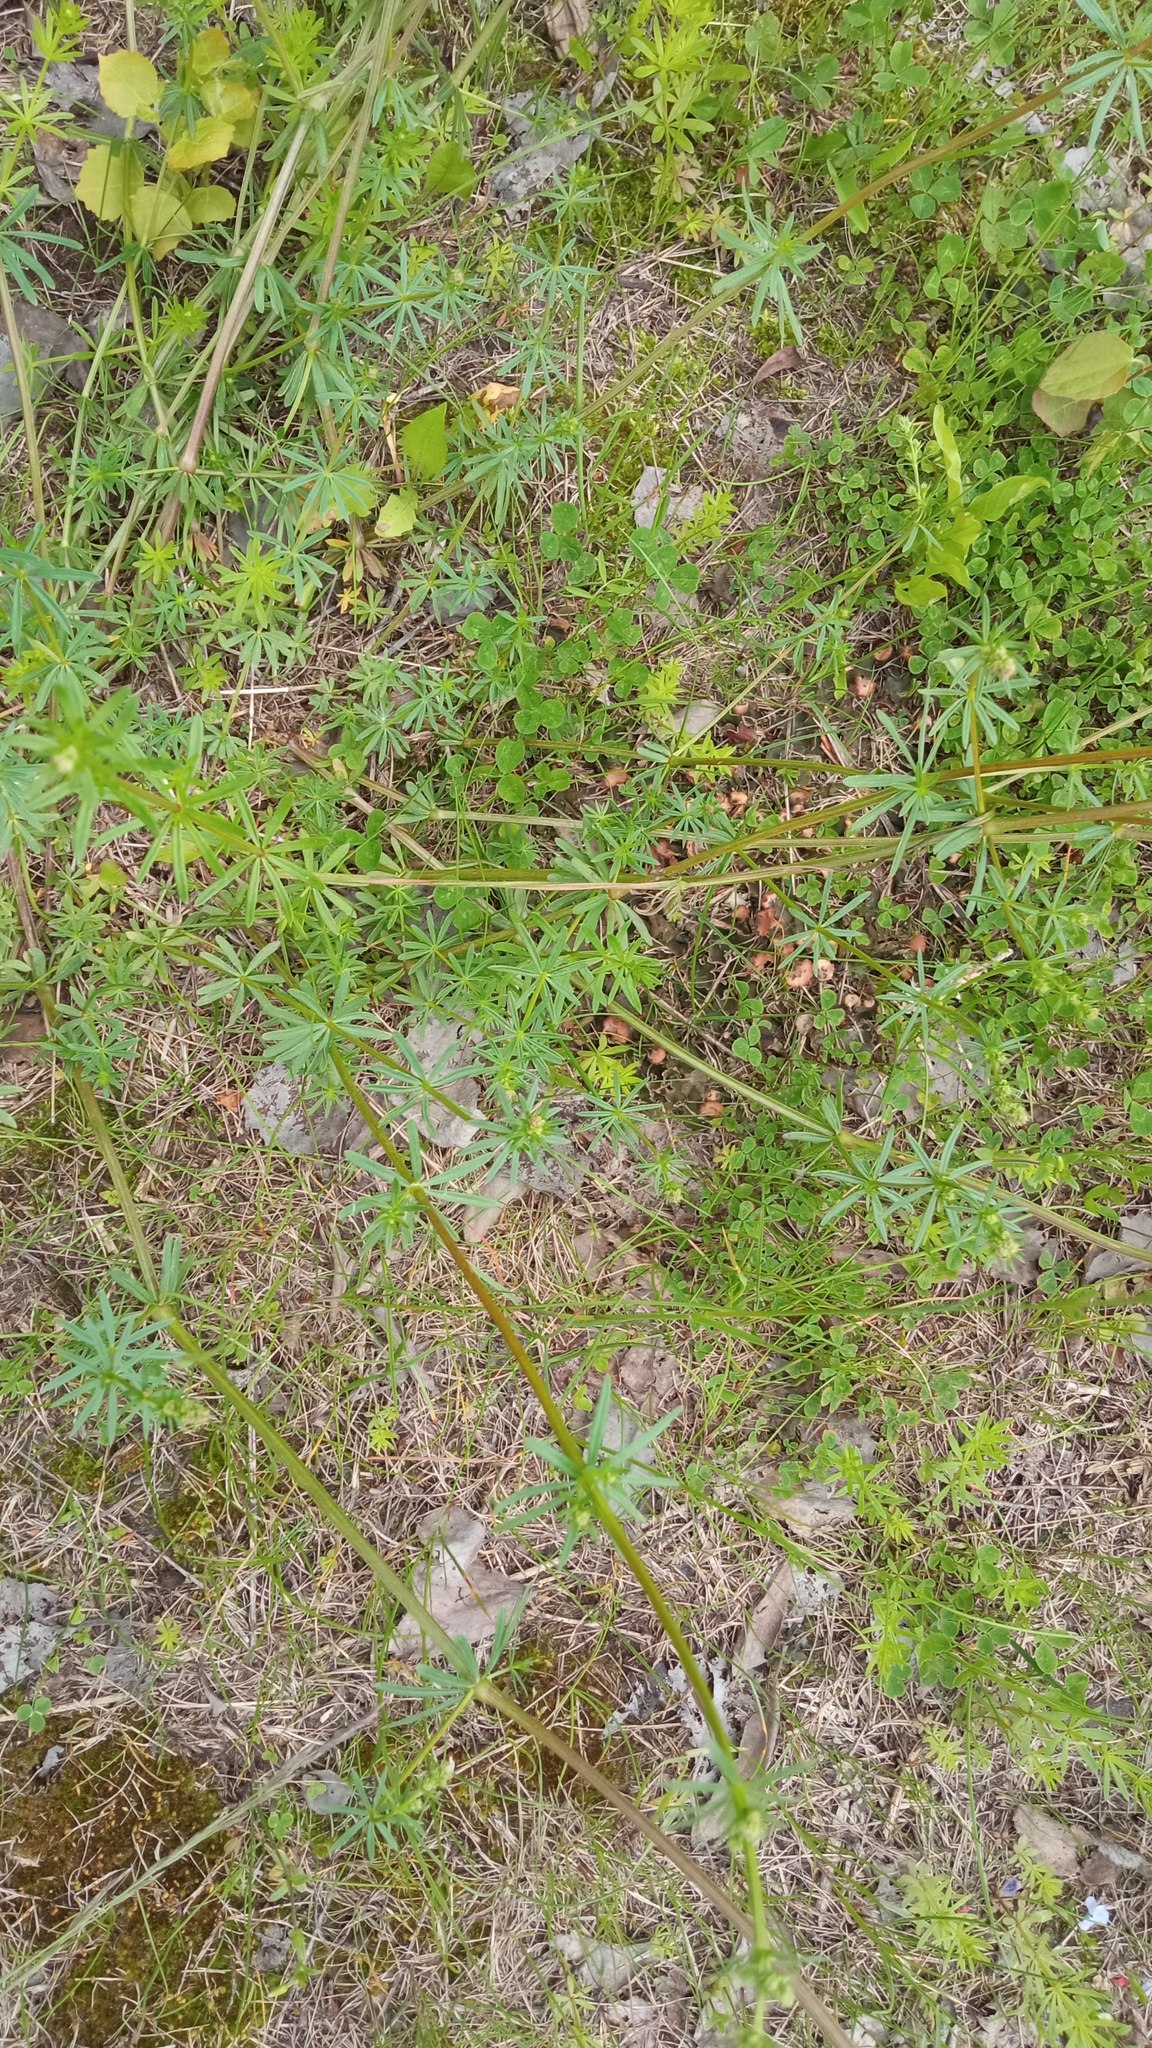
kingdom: Plantae
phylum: Tracheophyta
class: Magnoliopsida
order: Gentianales
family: Rubiaceae
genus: Galium
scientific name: Galium mollugo
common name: Hedge bedstraw
